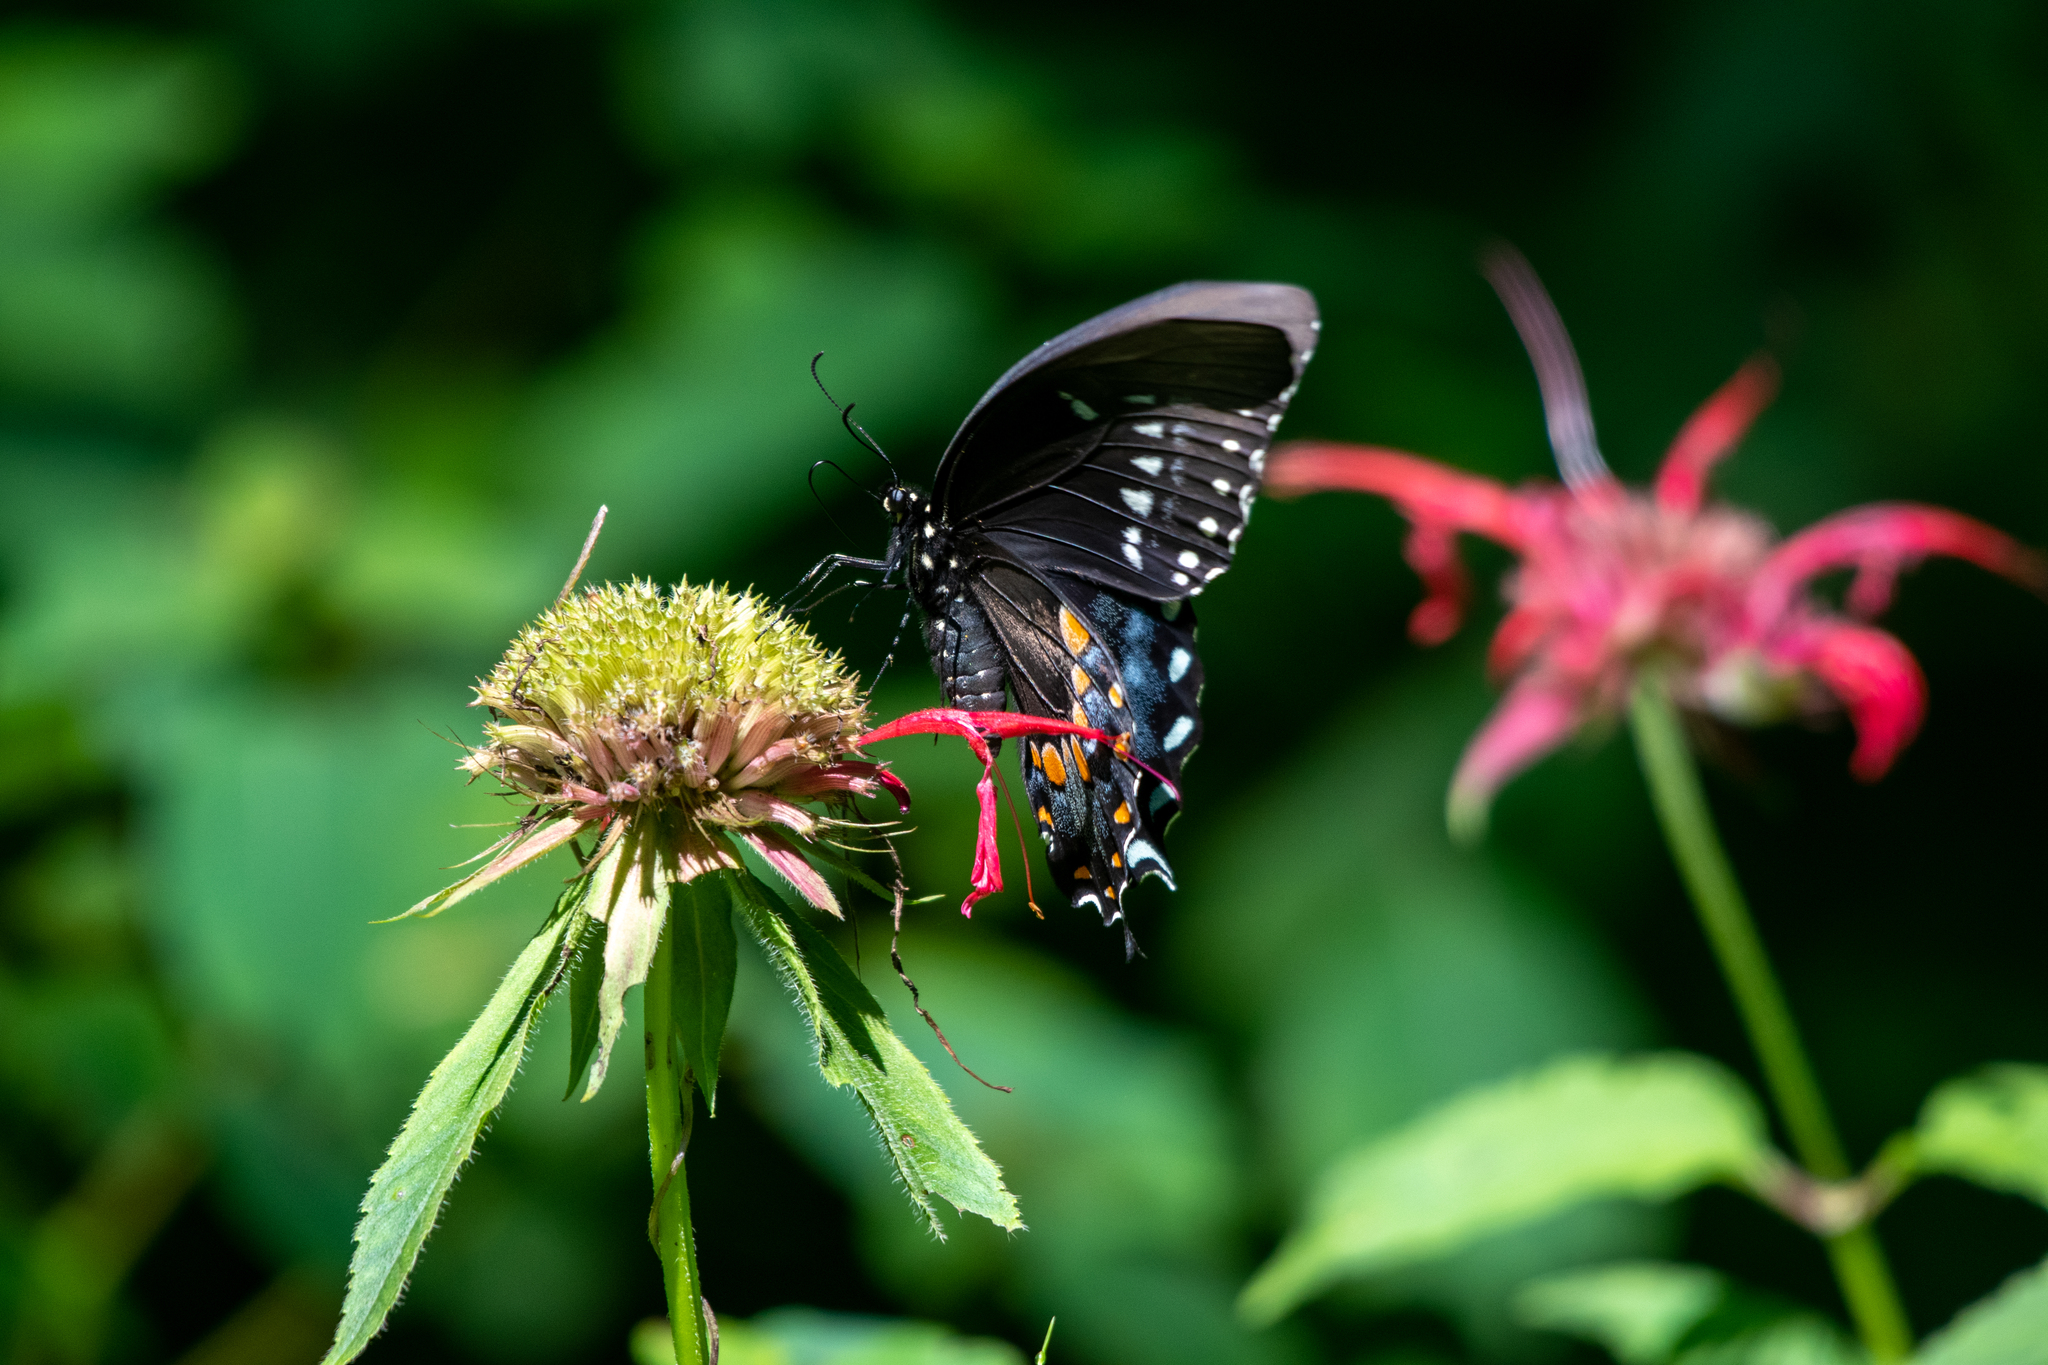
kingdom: Animalia
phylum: Arthropoda
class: Insecta
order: Lepidoptera
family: Papilionidae
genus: Papilio
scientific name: Papilio troilus
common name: Spicebush swallowtail
